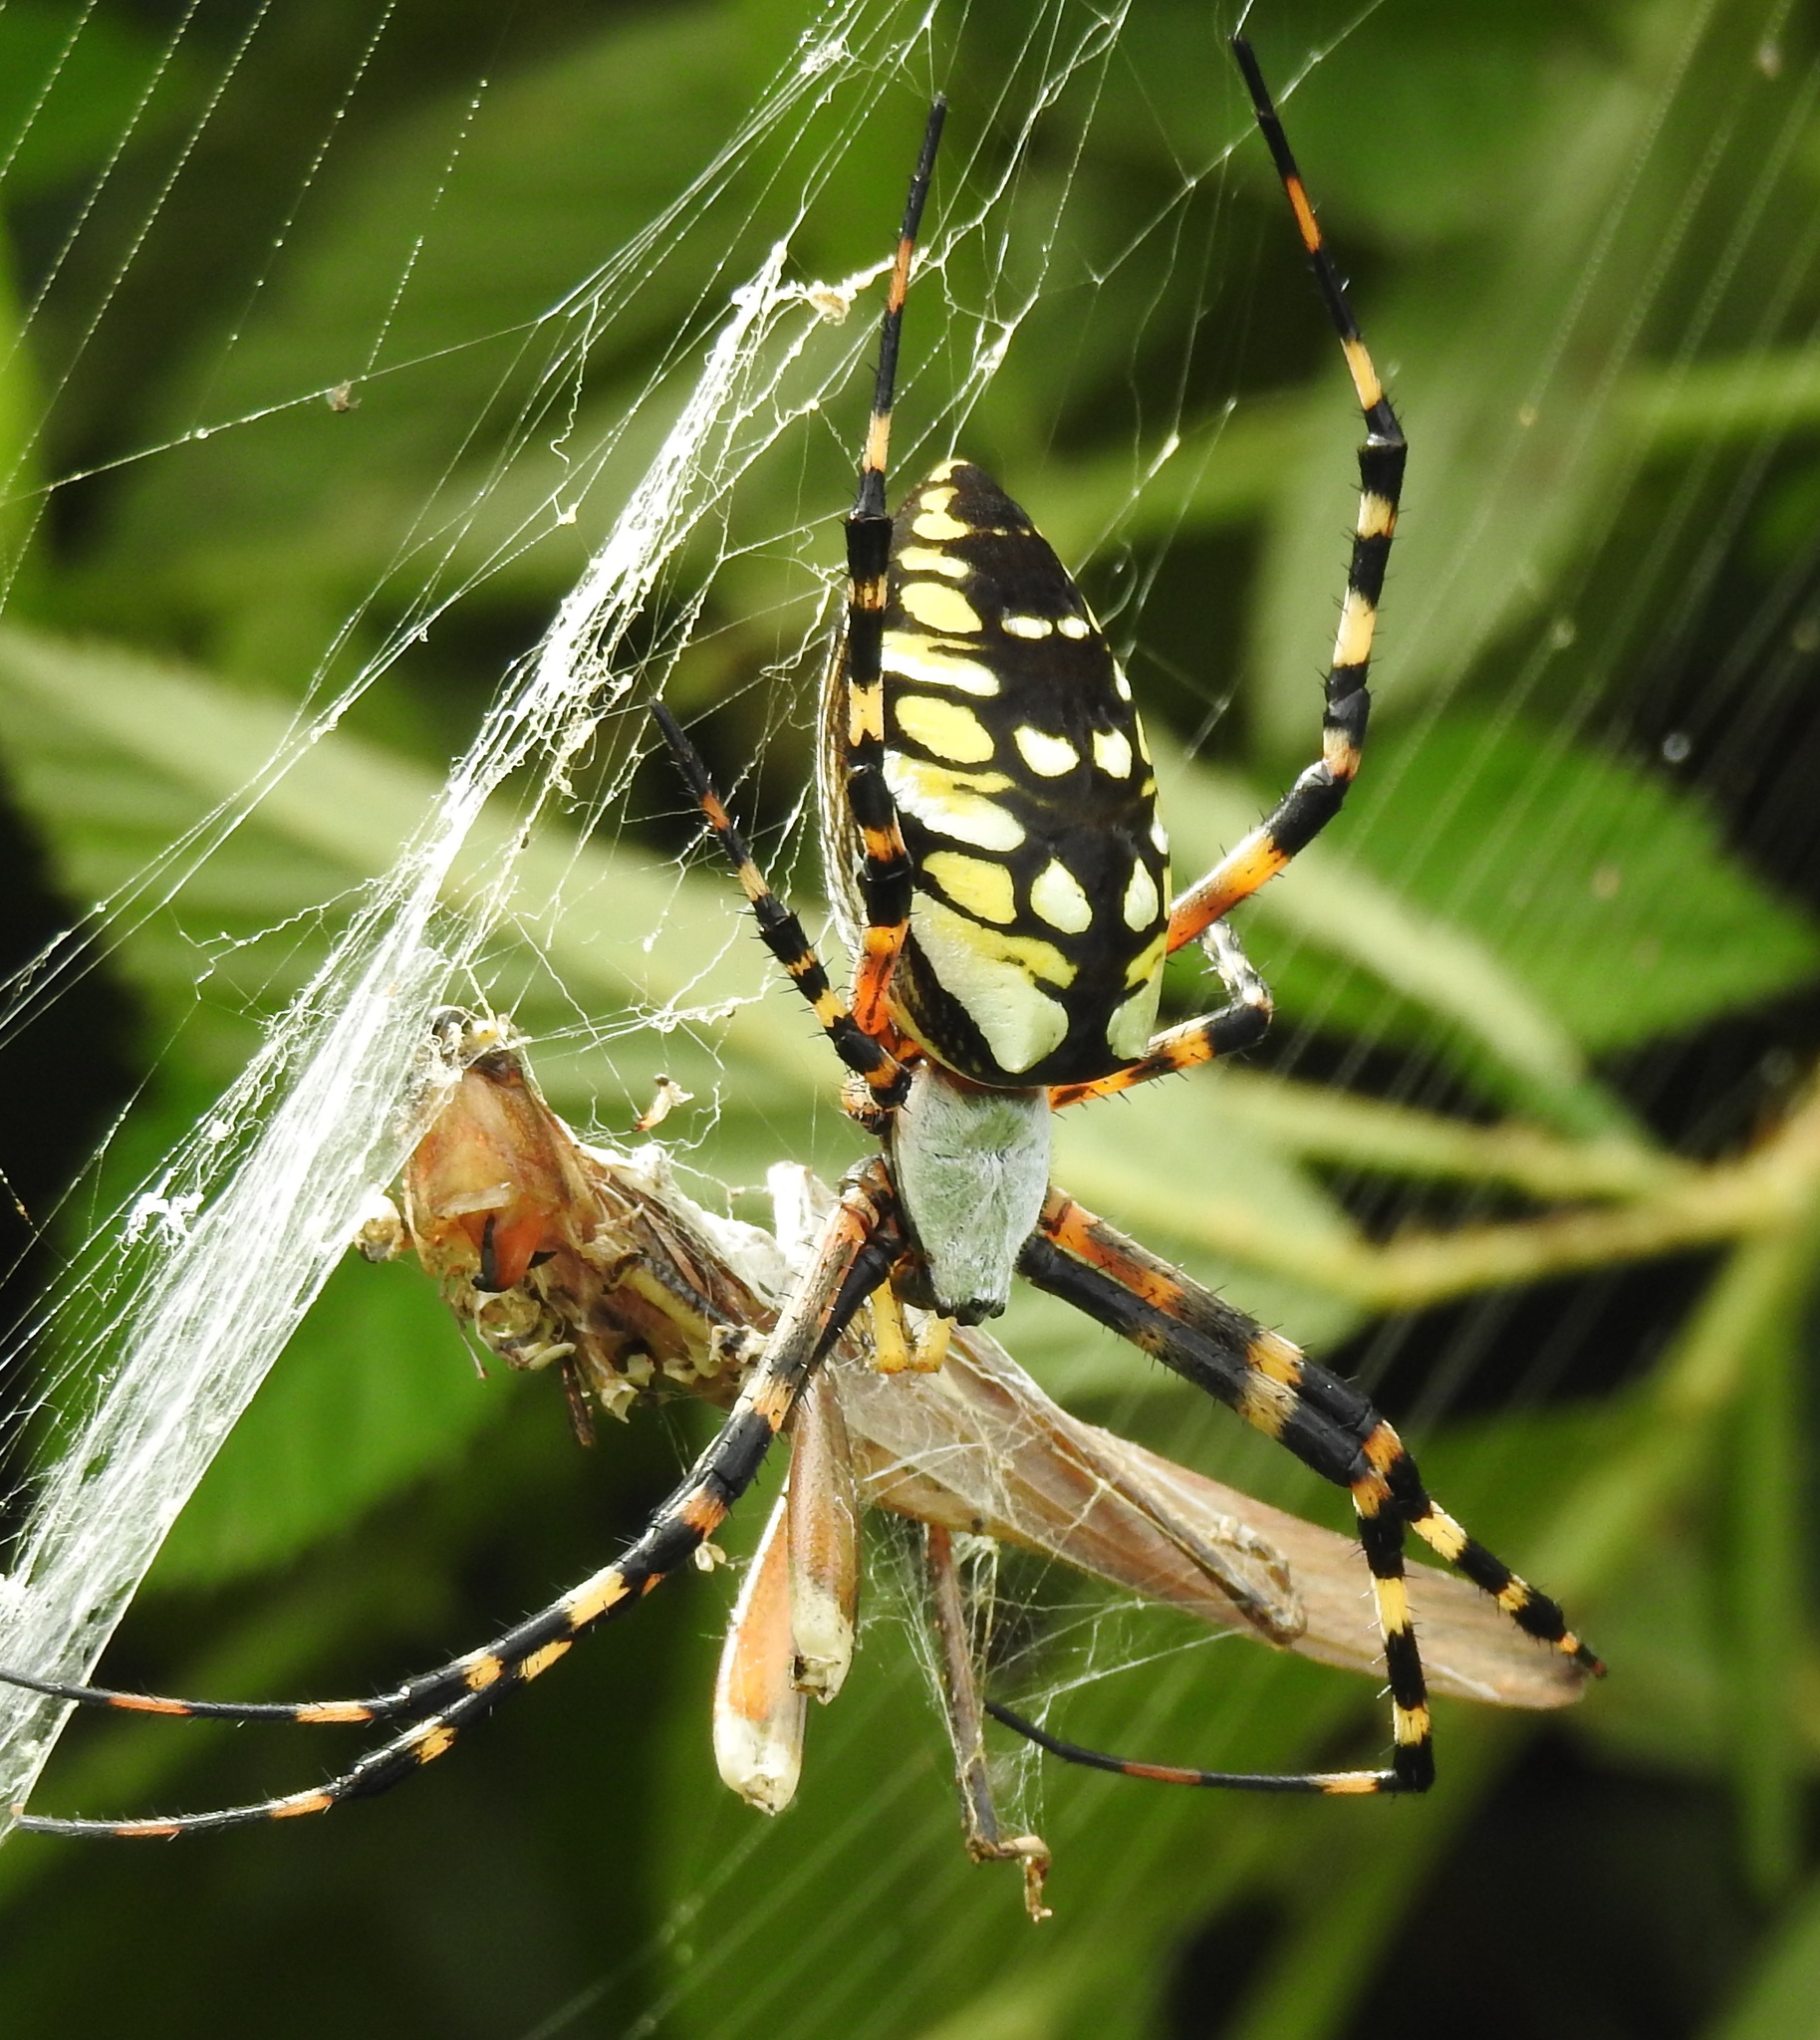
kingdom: Animalia
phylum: Arthropoda
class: Arachnida
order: Araneae
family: Araneidae
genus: Argiope
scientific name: Argiope aurantia
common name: Orb weavers
